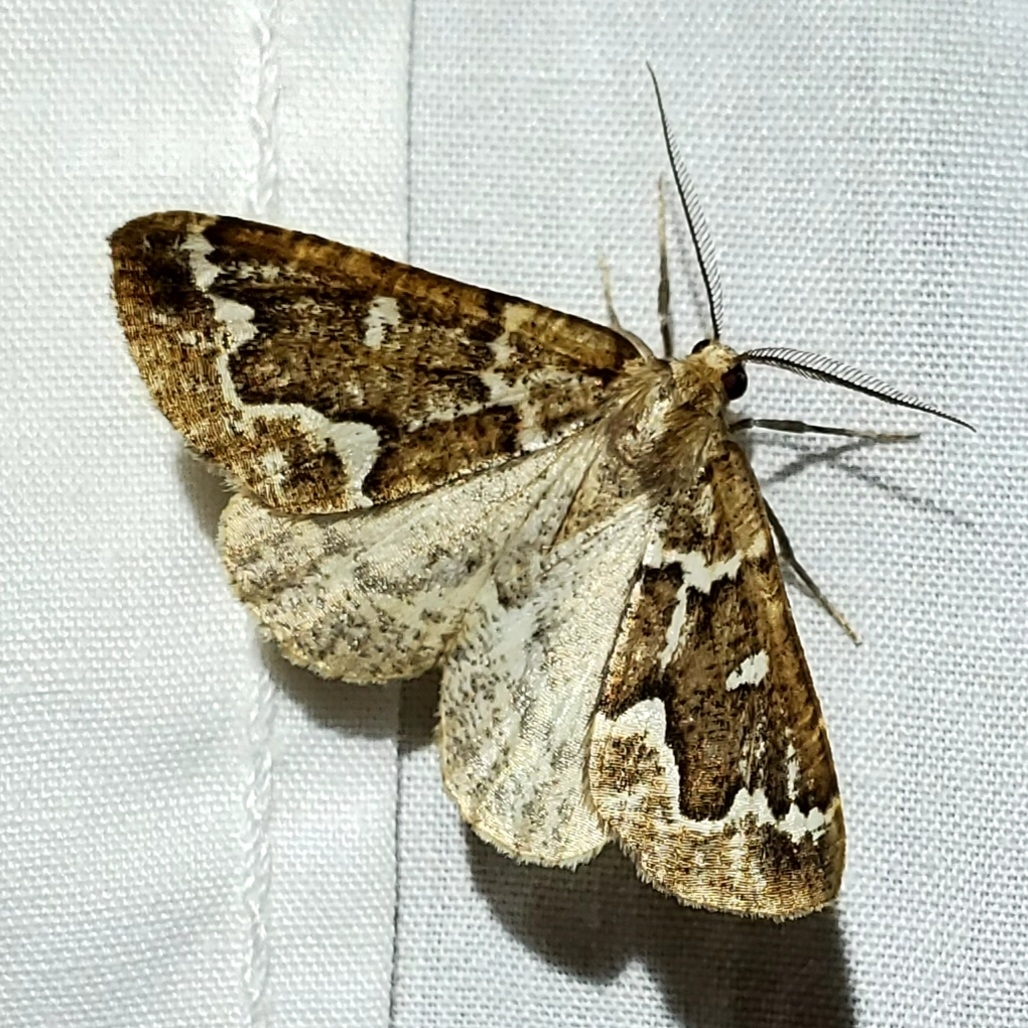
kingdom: Animalia
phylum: Arthropoda
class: Insecta
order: Lepidoptera
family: Geometridae
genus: Caripeta
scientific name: Caripeta divisata
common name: Gray spruce looper
